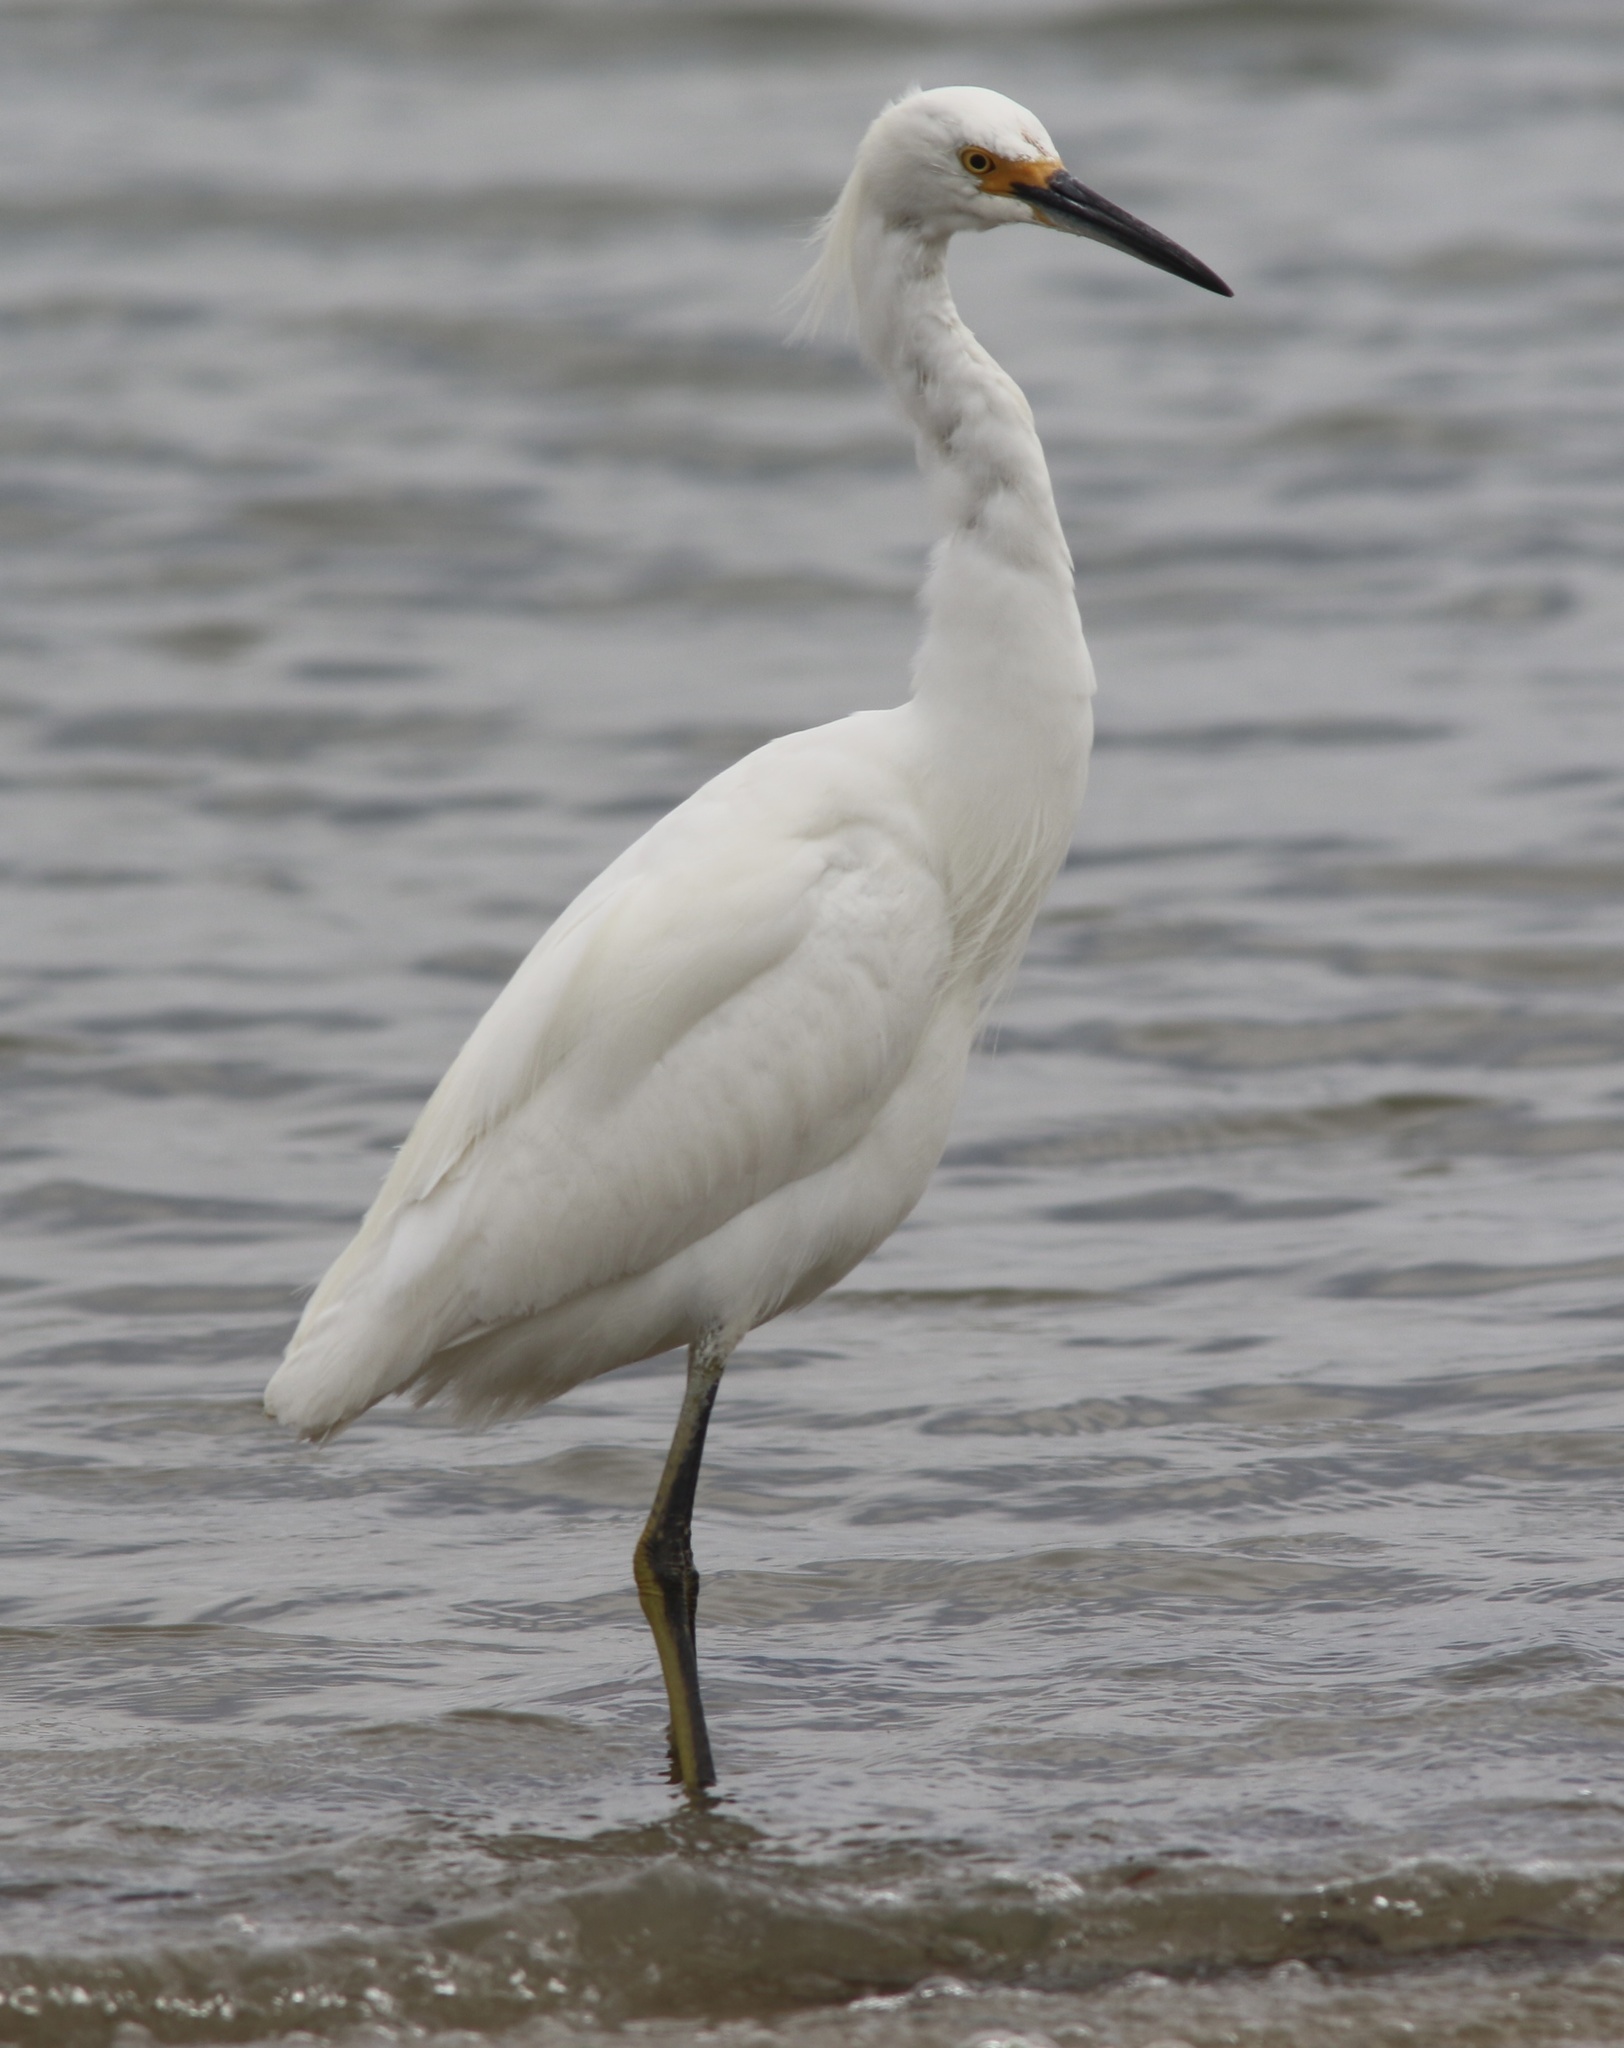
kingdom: Animalia
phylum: Chordata
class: Aves
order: Pelecaniformes
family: Ardeidae
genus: Egretta
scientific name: Egretta thula
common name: Snowy egret
